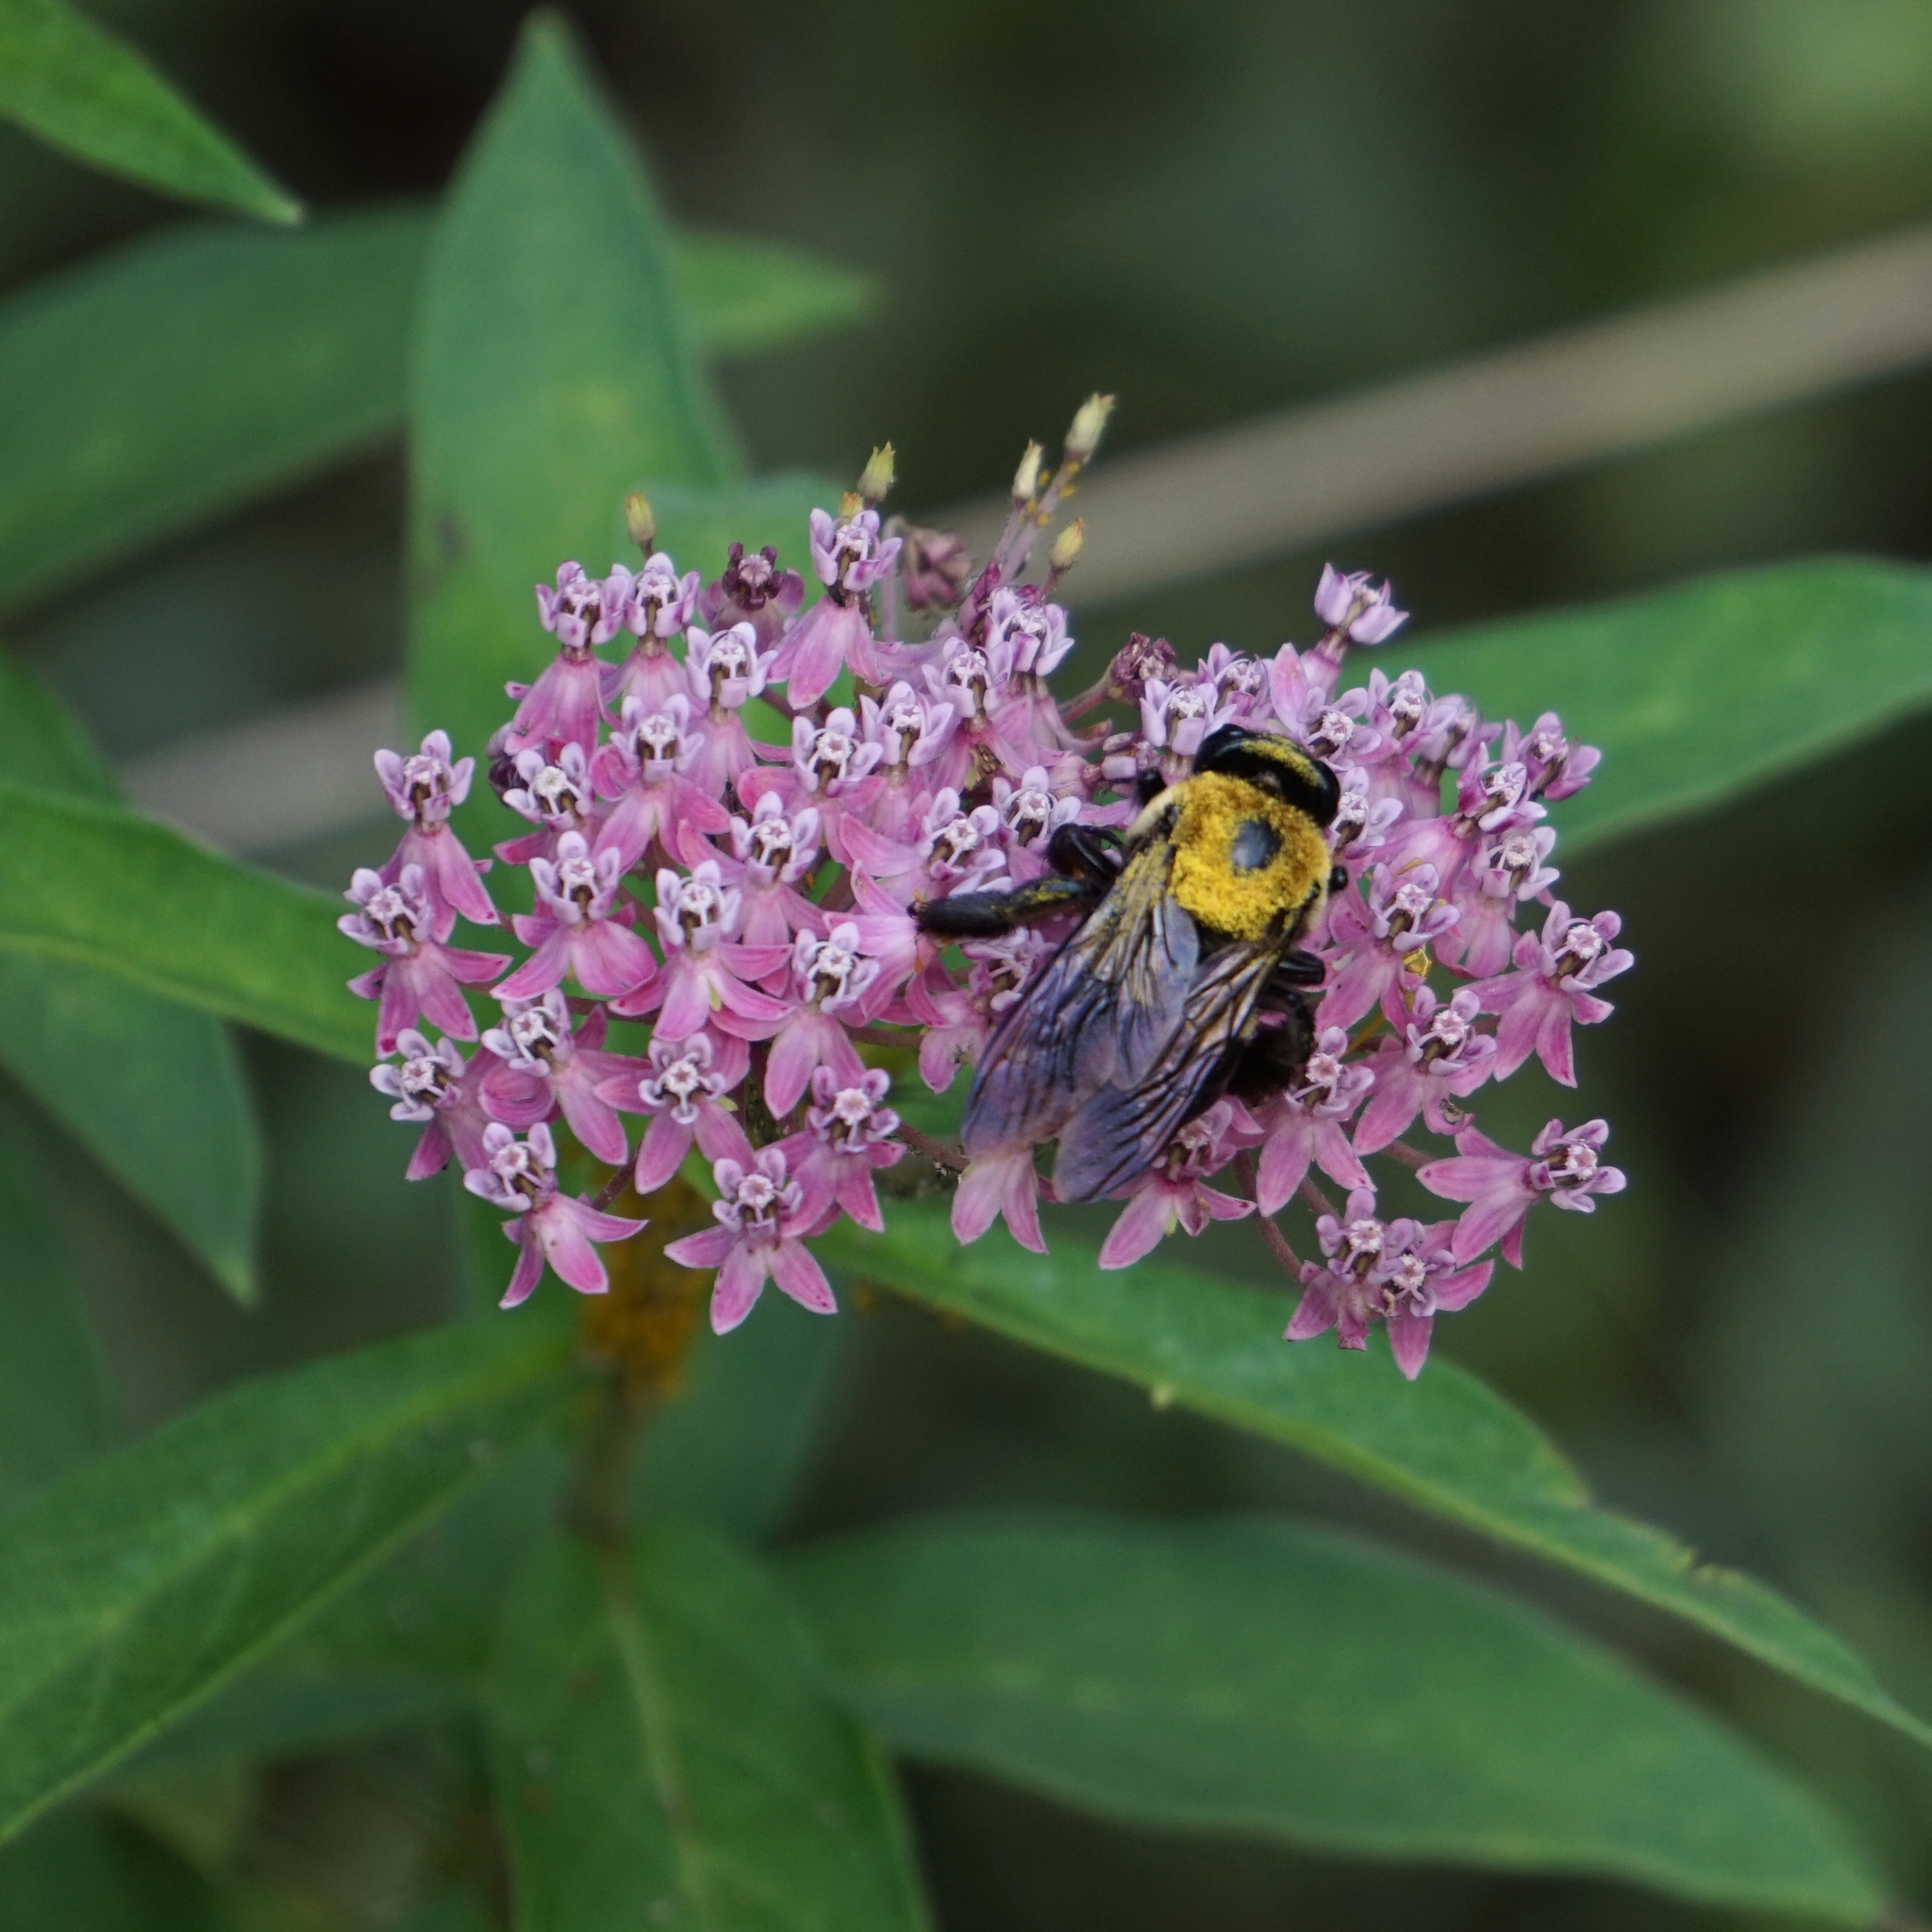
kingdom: Animalia
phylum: Arthropoda
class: Insecta
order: Hymenoptera
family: Apidae
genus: Xylocopa
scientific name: Xylocopa virginica
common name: Carpenter bee
